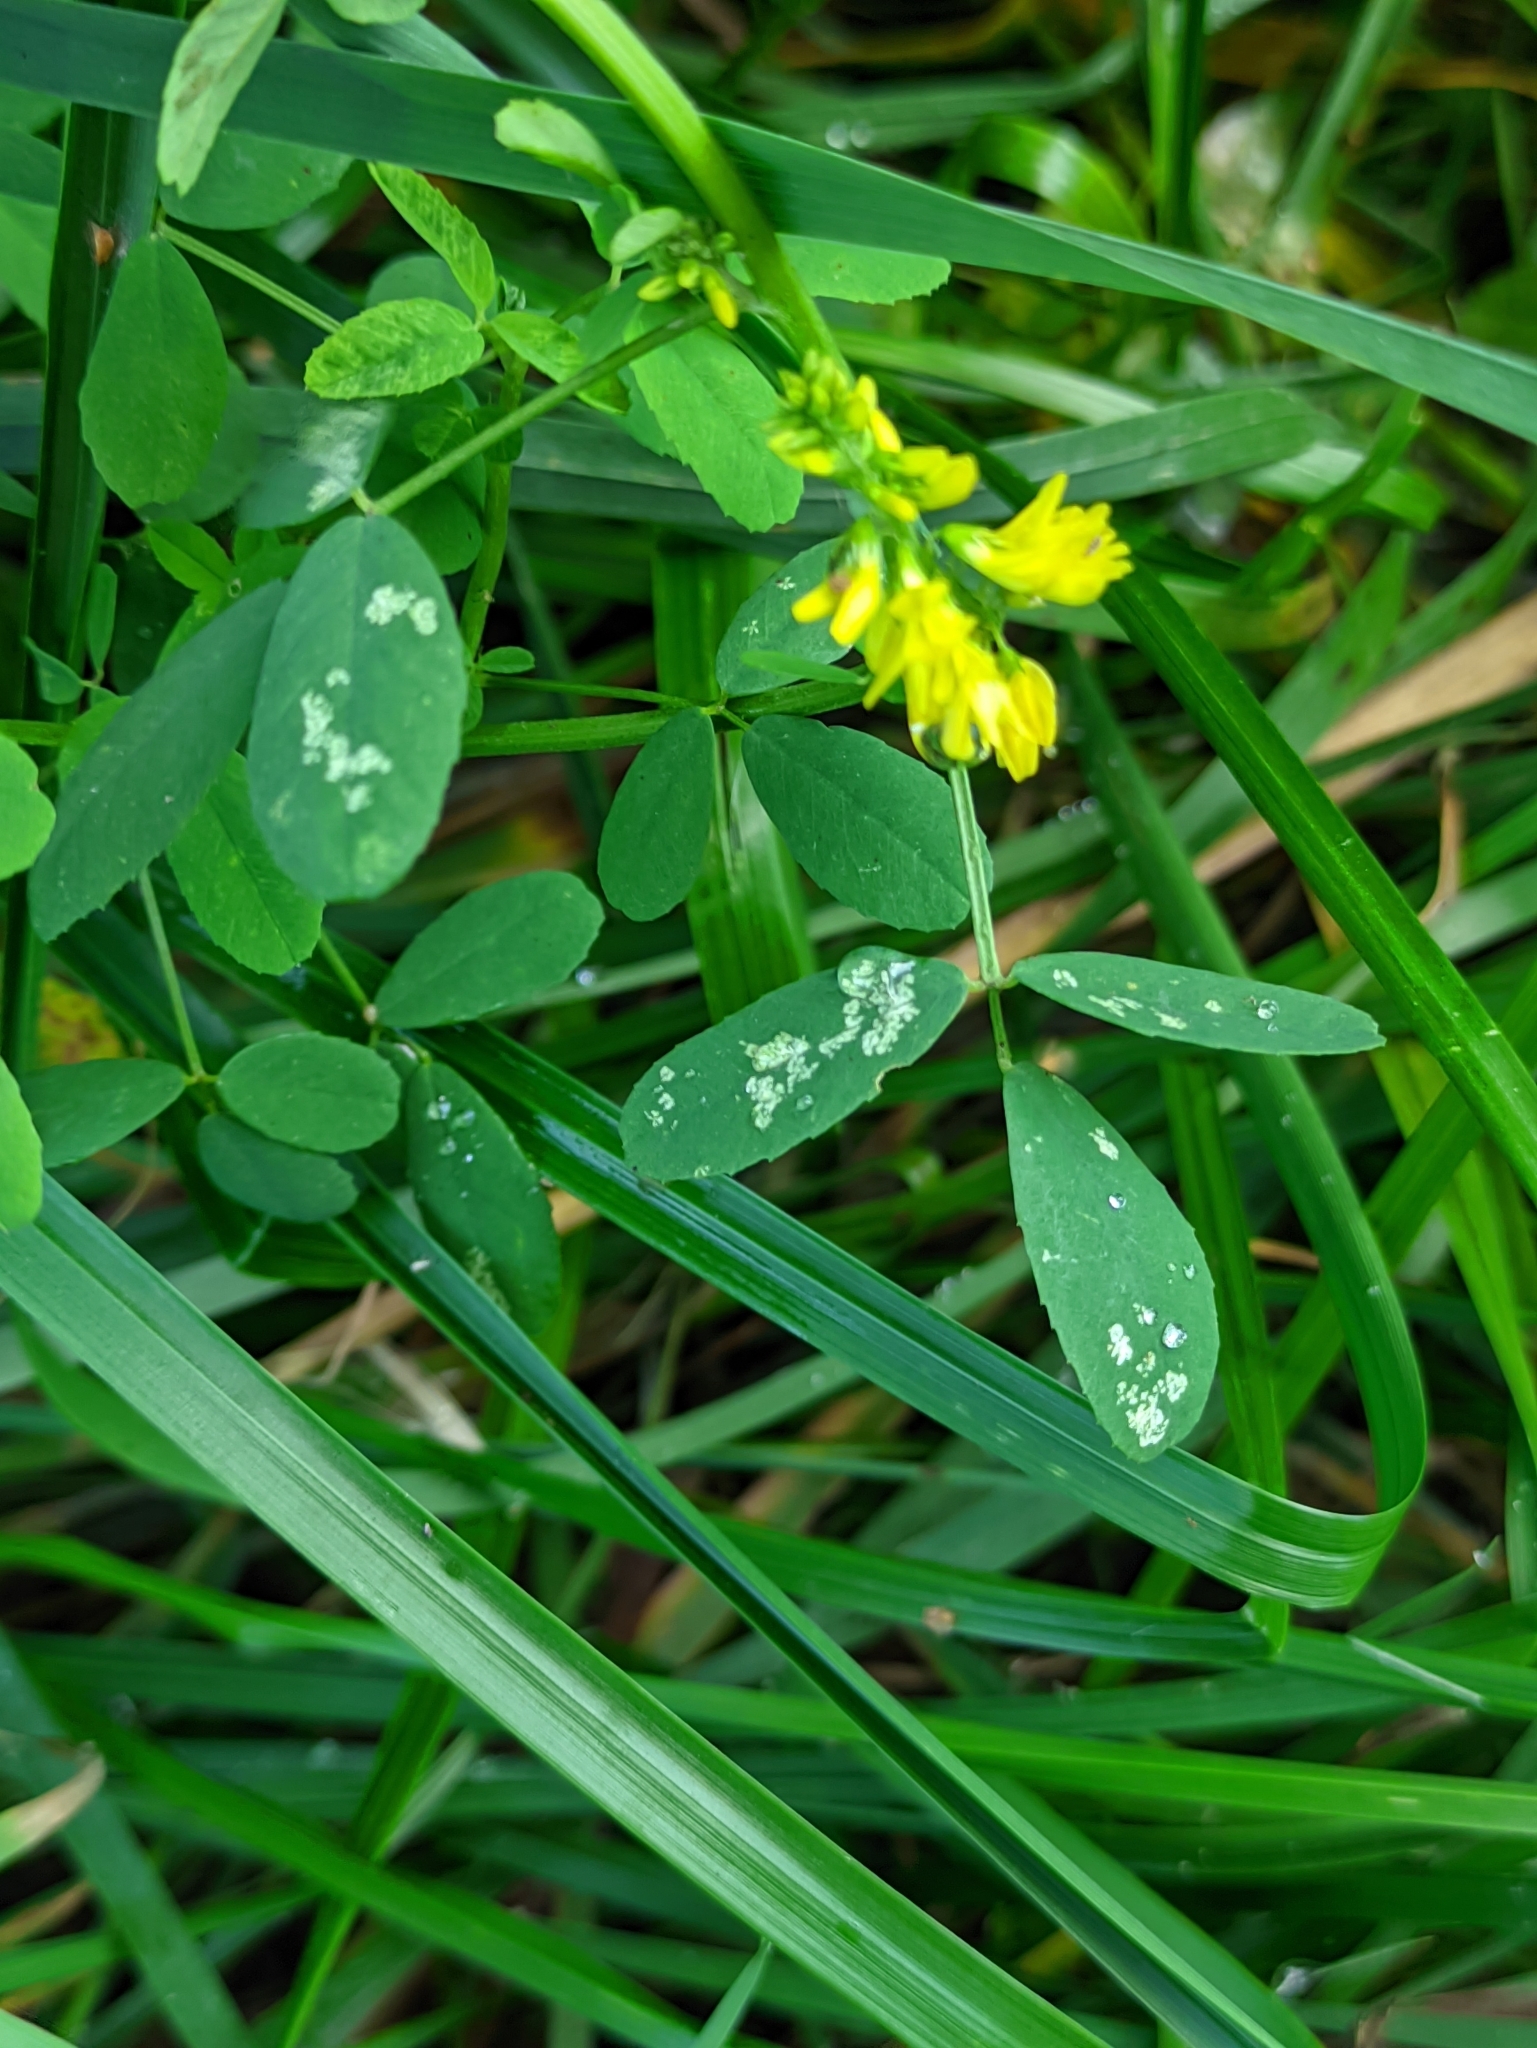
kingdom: Plantae
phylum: Tracheophyta
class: Magnoliopsida
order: Fabales
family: Fabaceae
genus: Melilotus
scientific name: Melilotus officinalis
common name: Sweetclover
